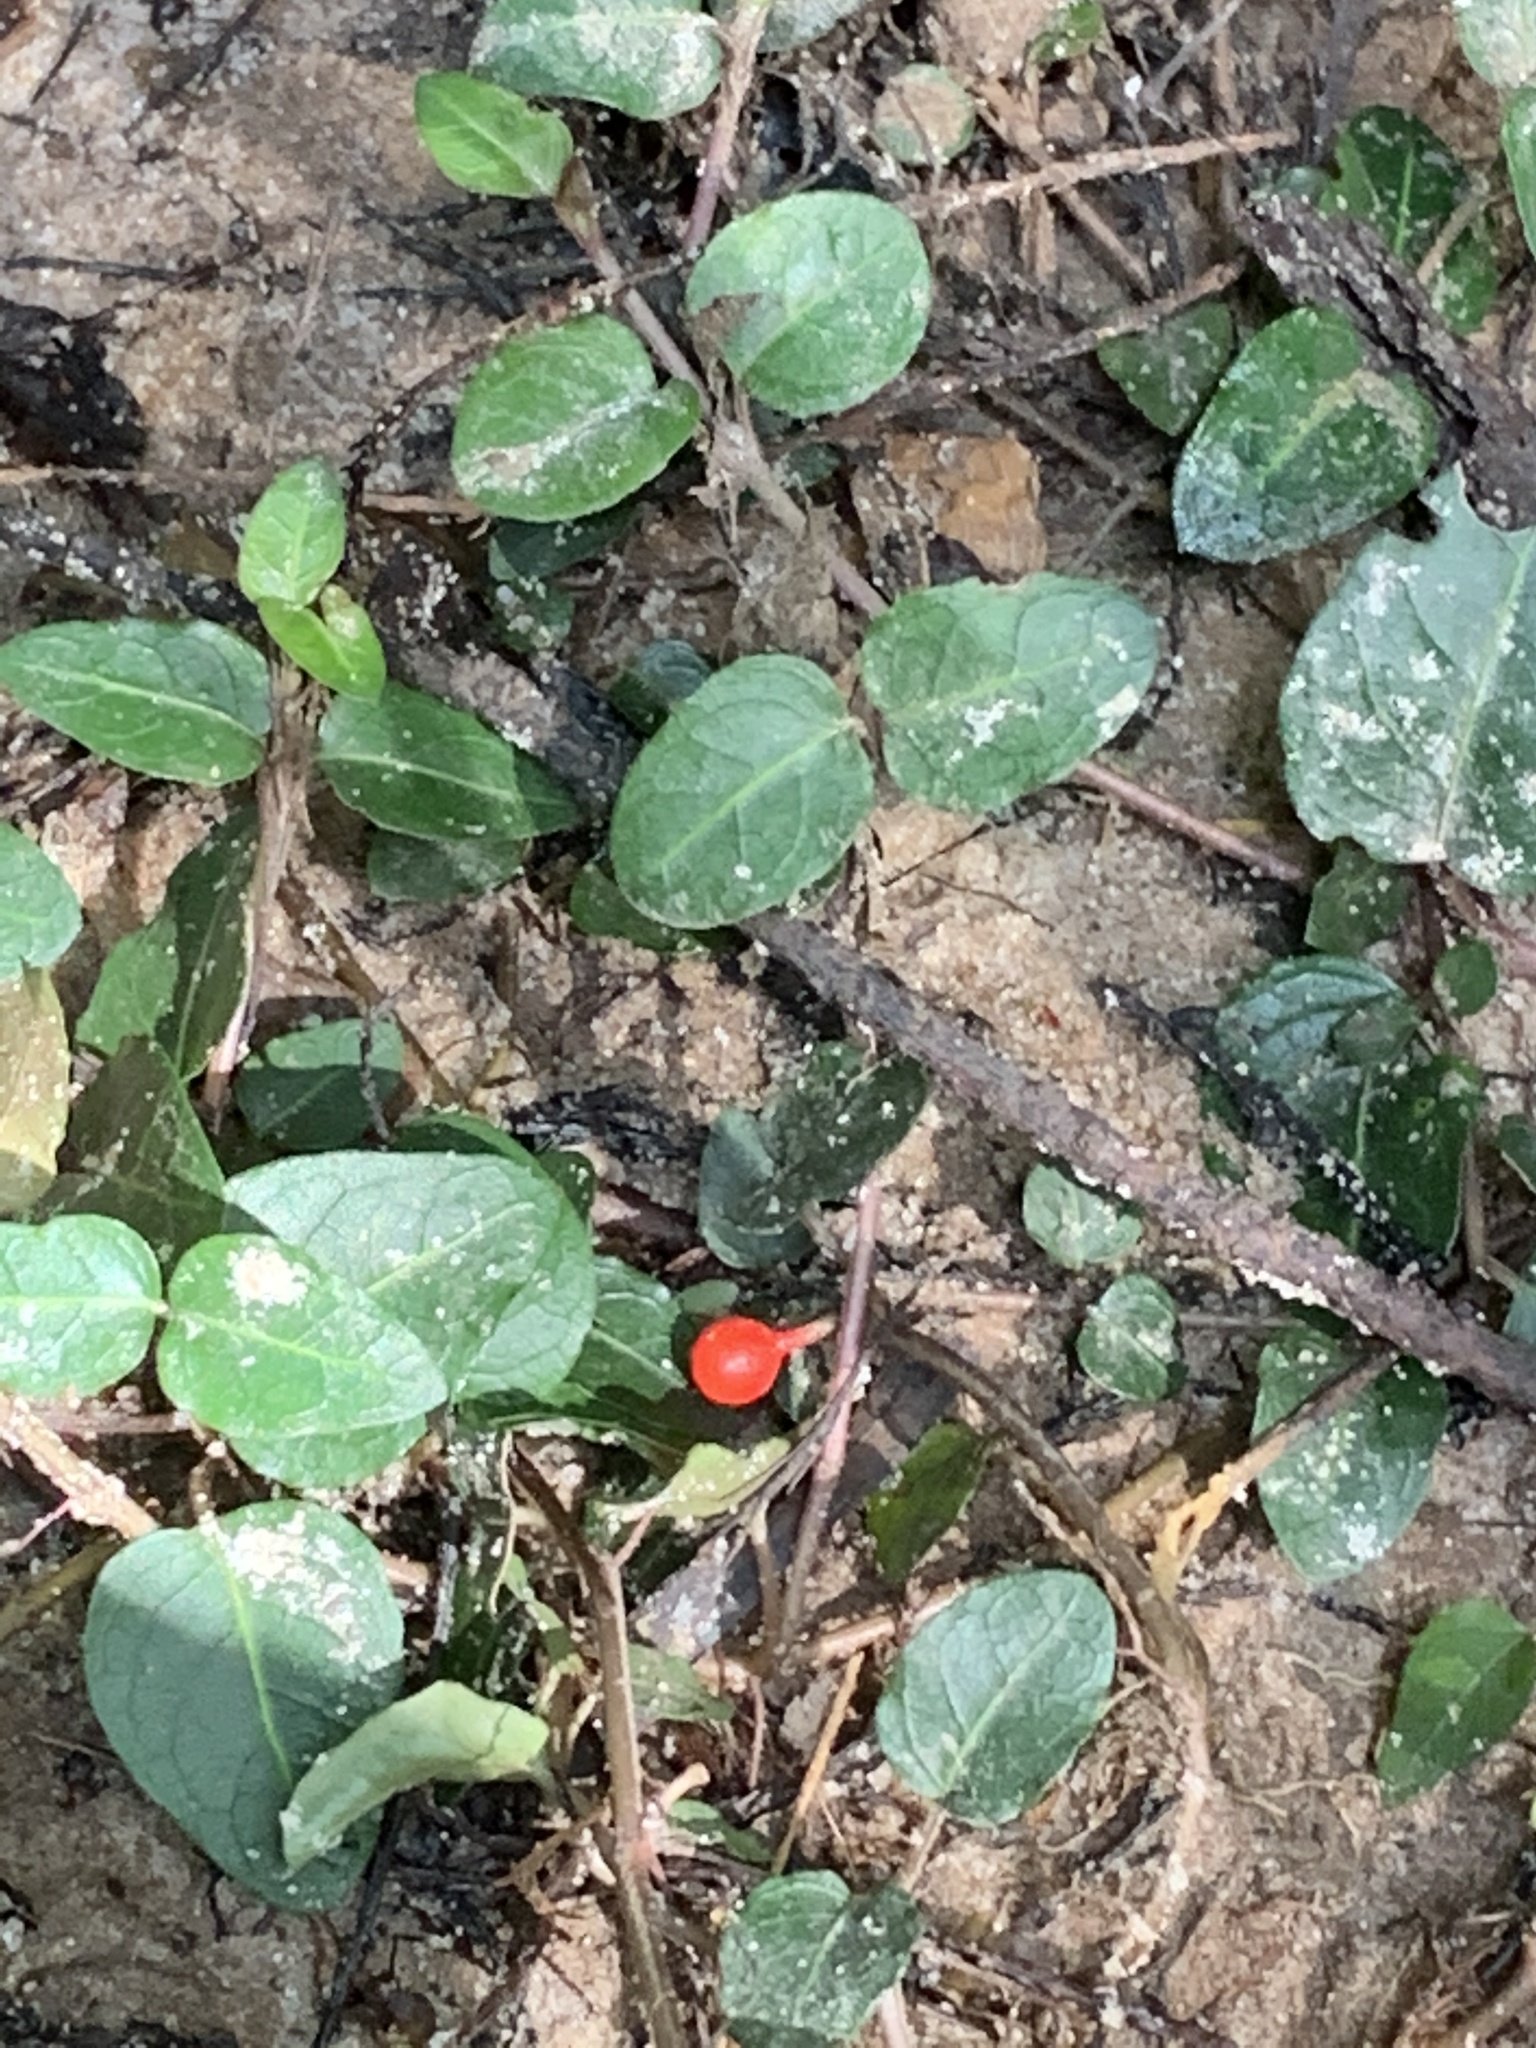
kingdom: Plantae
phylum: Tracheophyta
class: Magnoliopsida
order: Gentianales
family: Rubiaceae
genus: Mitchella
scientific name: Mitchella repens
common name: Partridge-berry
